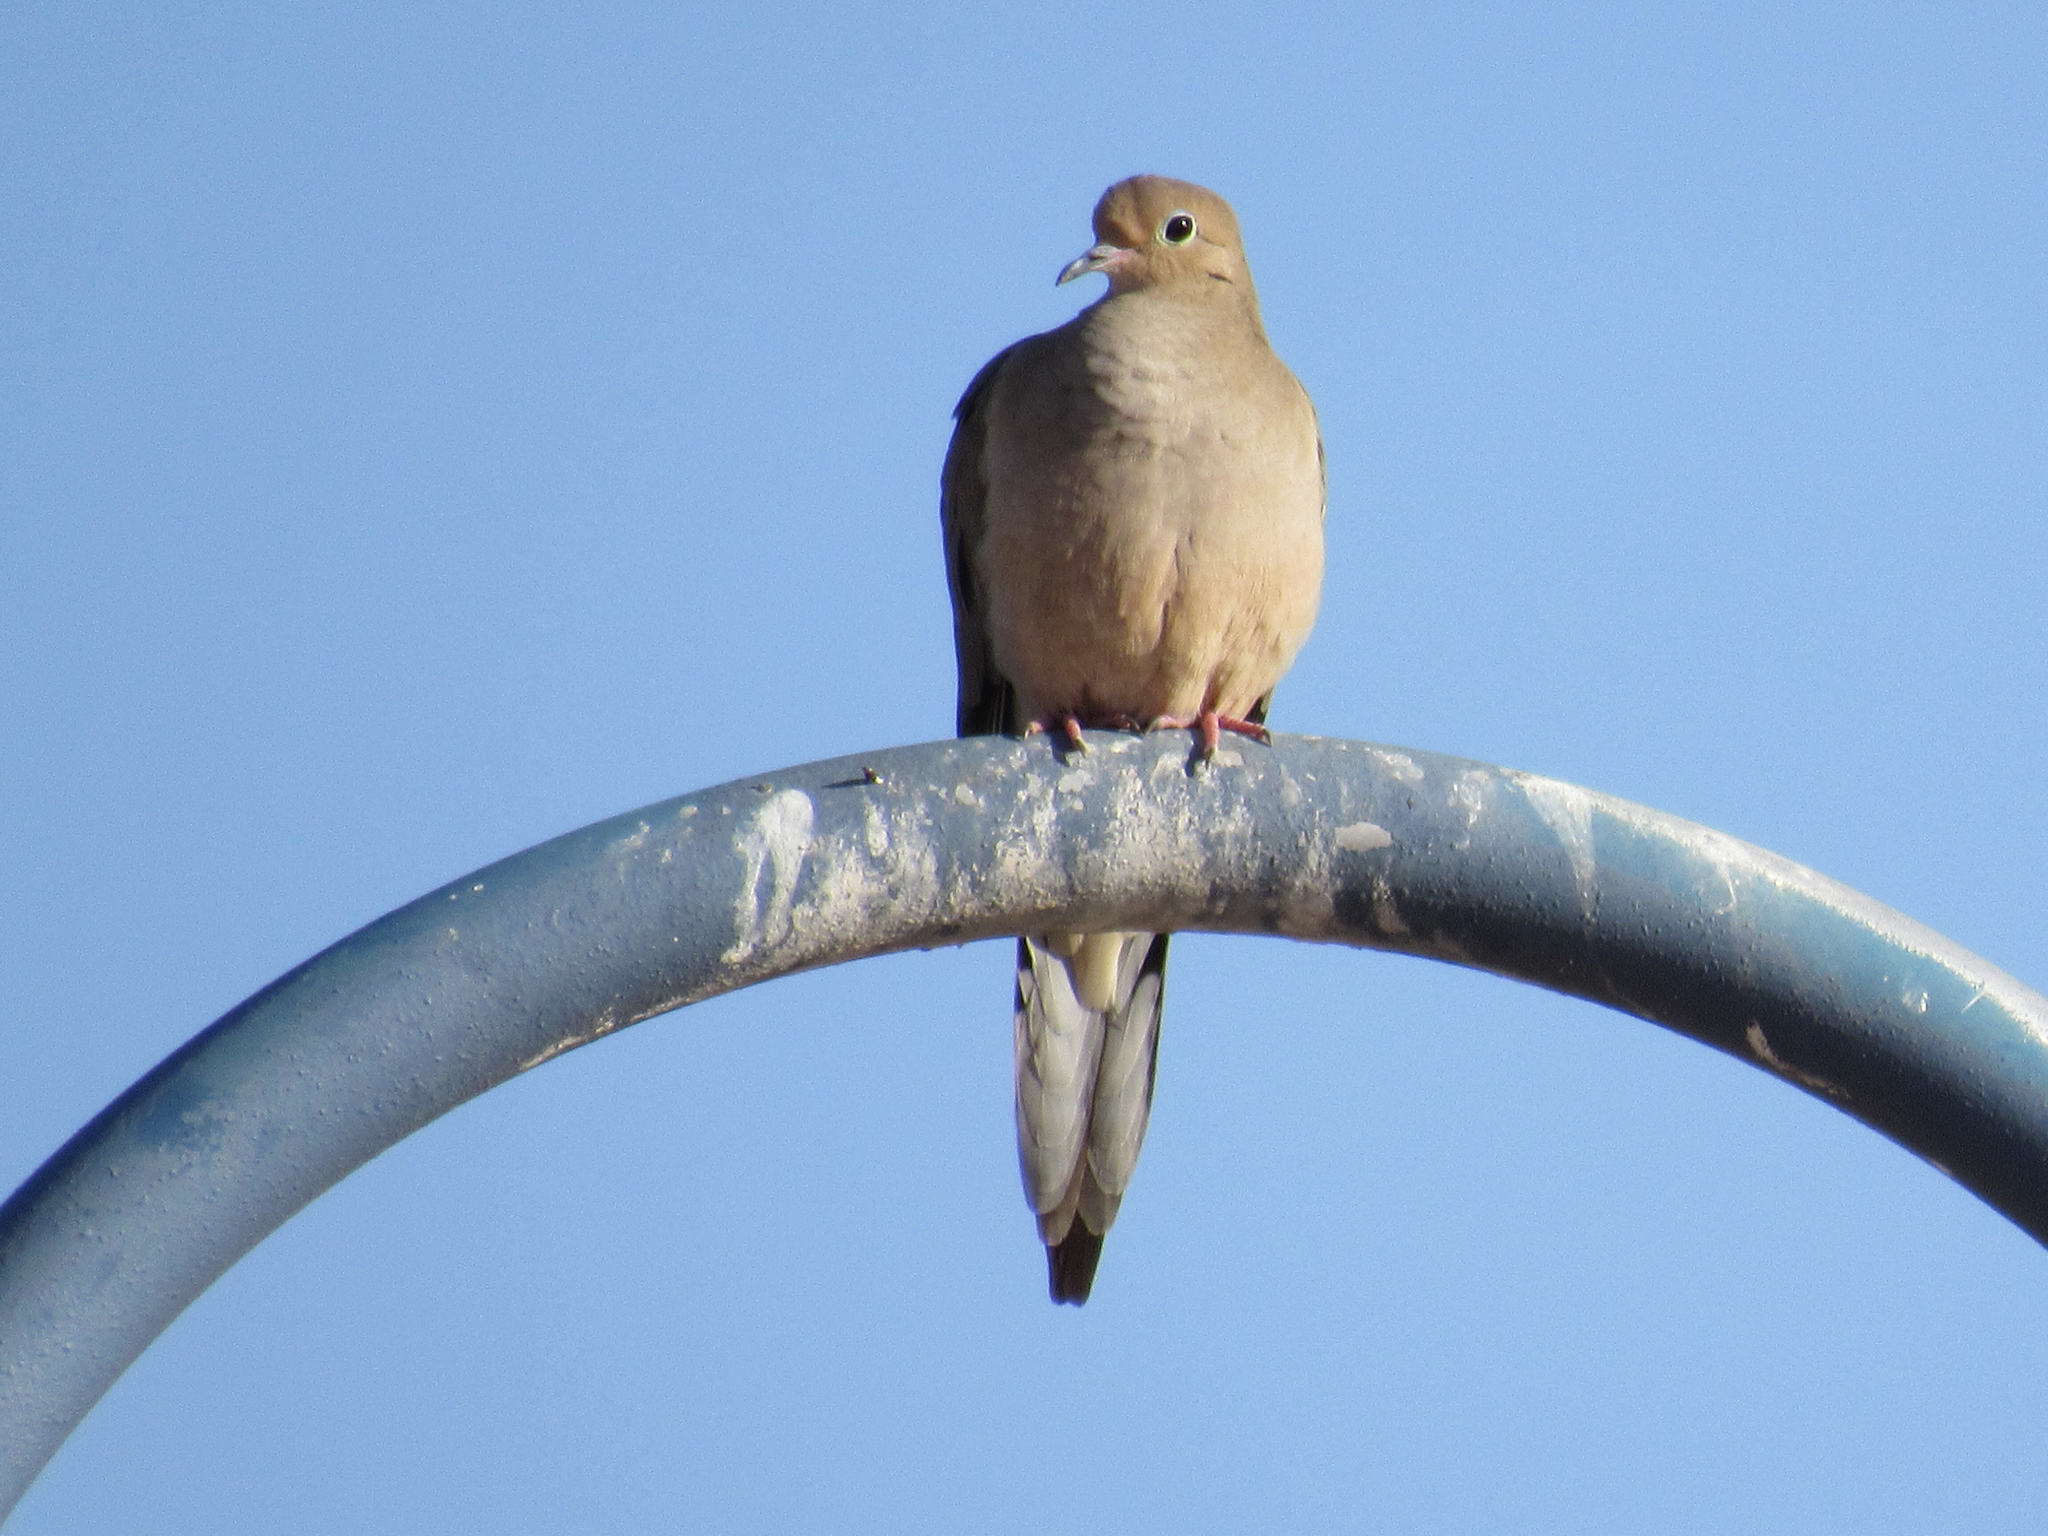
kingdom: Animalia
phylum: Chordata
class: Aves
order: Columbiformes
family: Columbidae
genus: Zenaida
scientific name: Zenaida macroura
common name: Mourning dove
